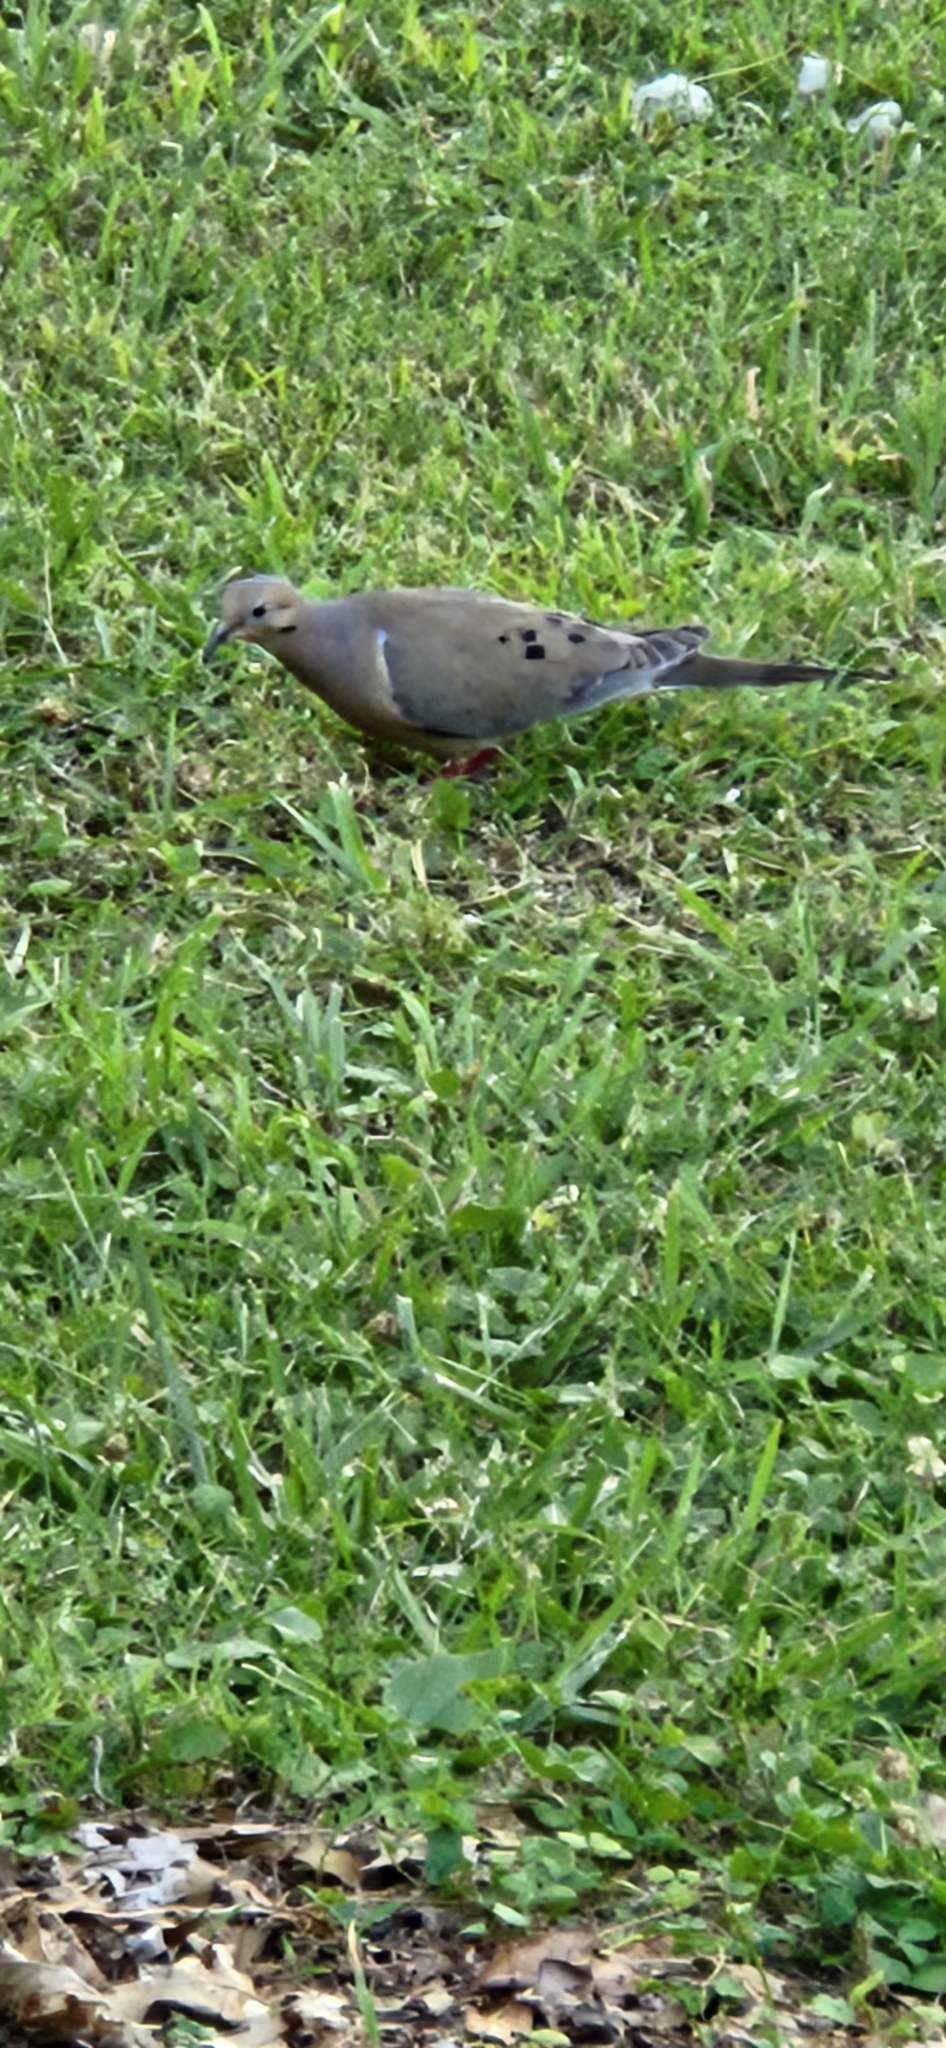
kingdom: Animalia
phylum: Chordata
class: Aves
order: Columbiformes
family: Columbidae
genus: Zenaida
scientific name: Zenaida macroura
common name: Mourning dove
